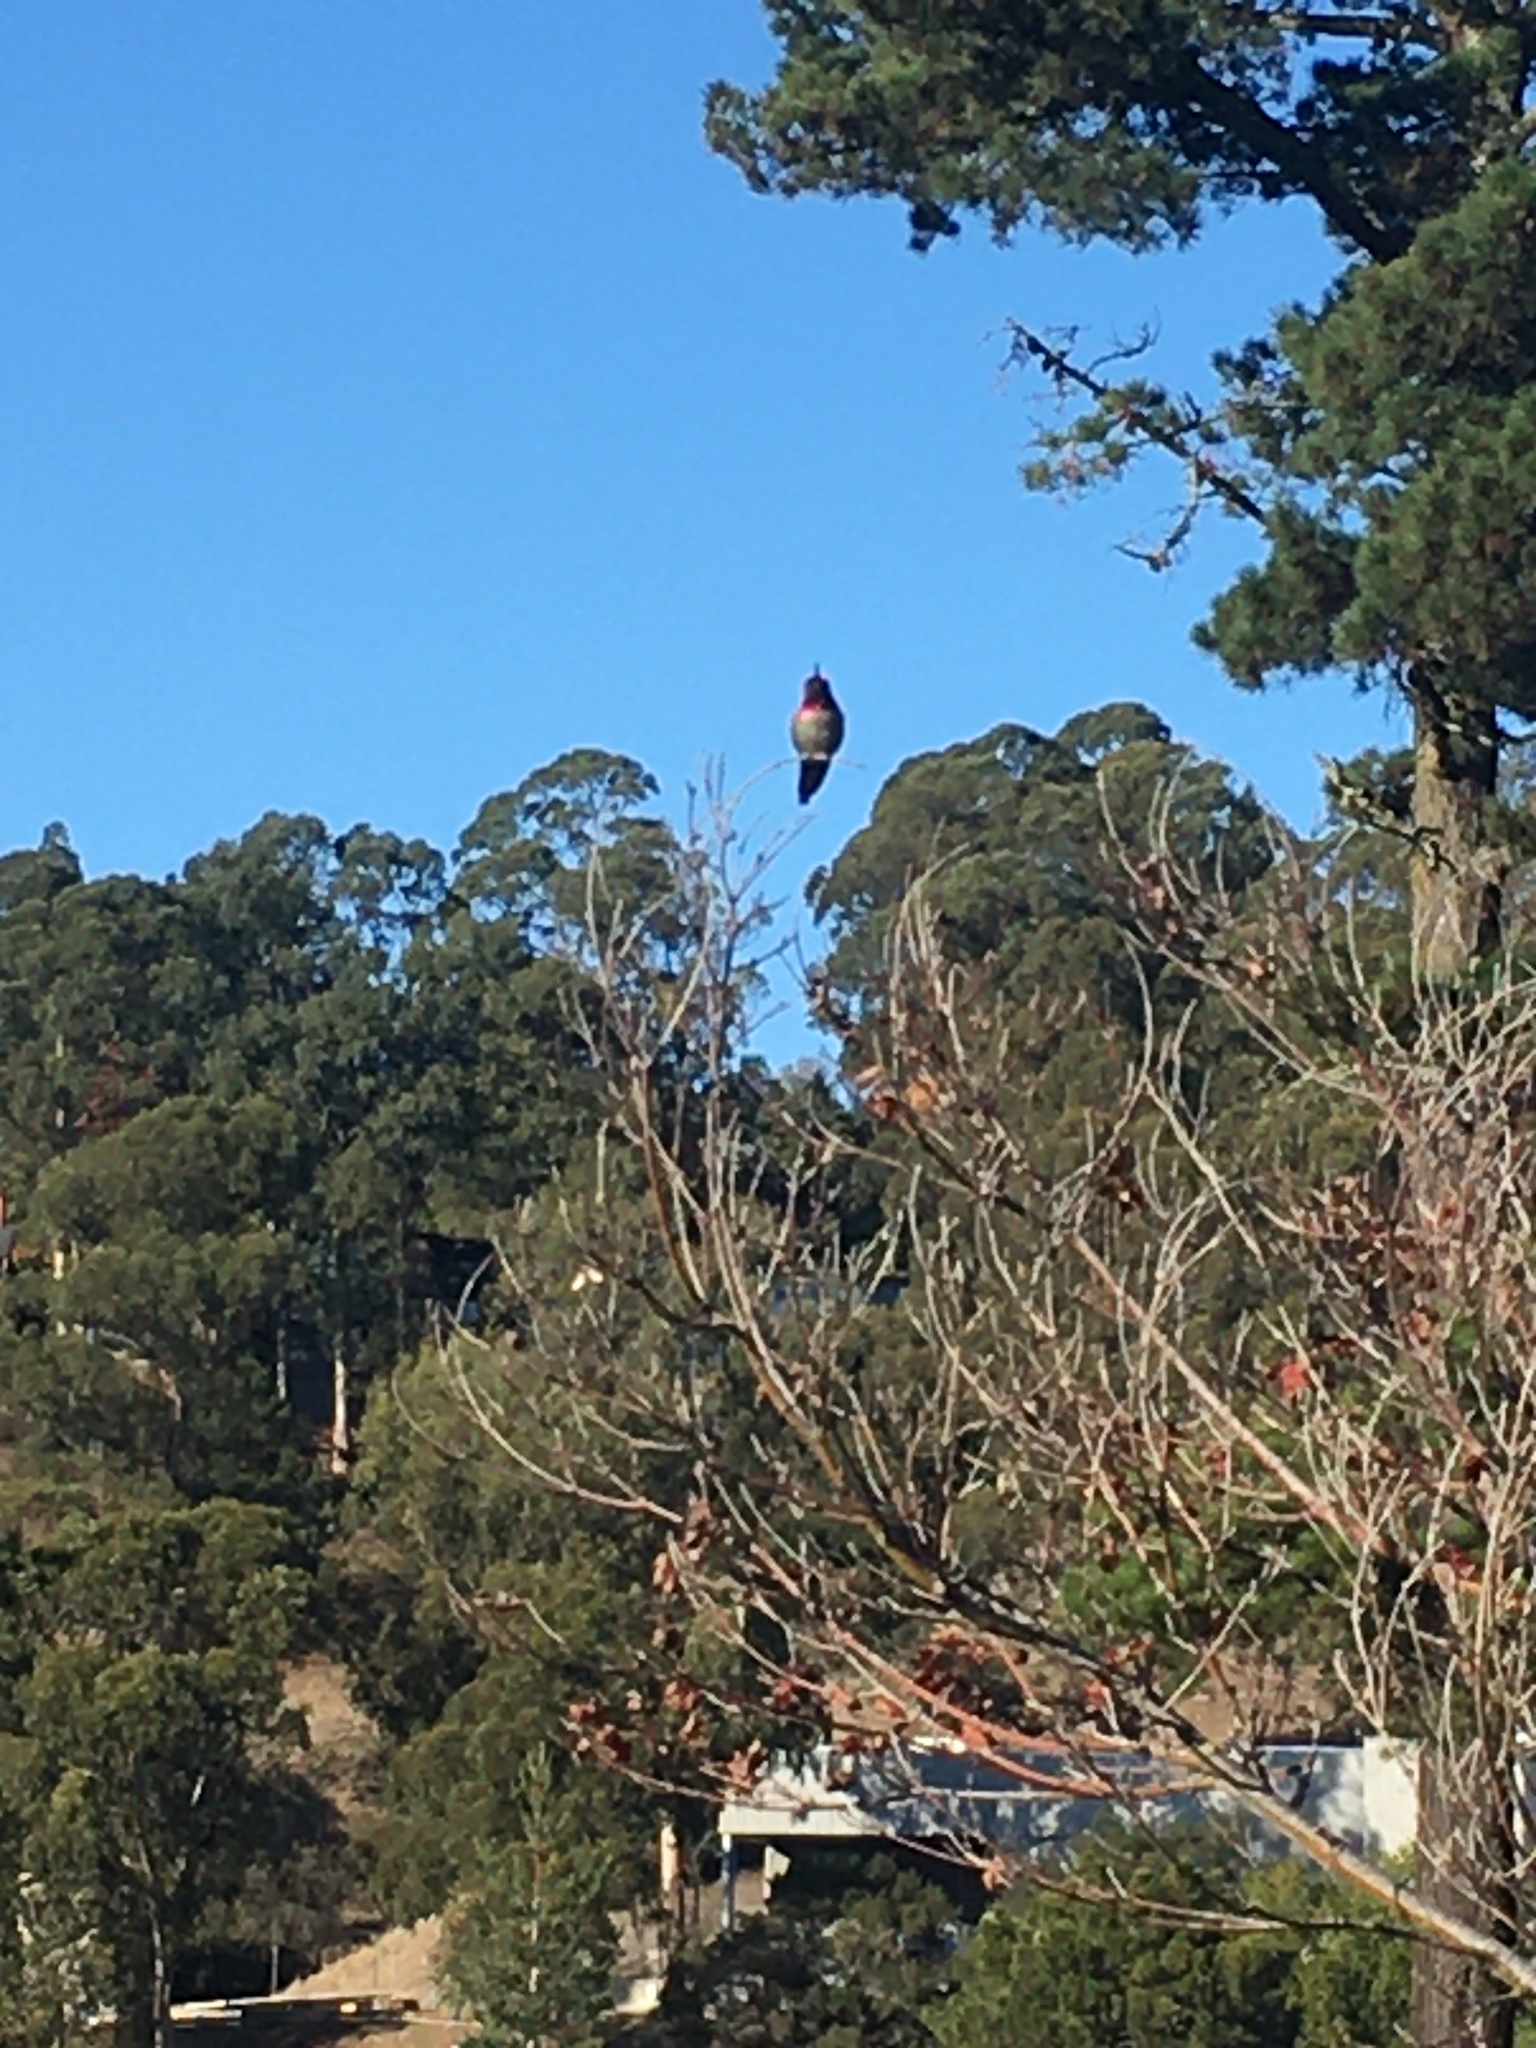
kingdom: Animalia
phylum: Chordata
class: Aves
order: Apodiformes
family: Trochilidae
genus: Calypte
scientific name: Calypte anna
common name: Anna's hummingbird
